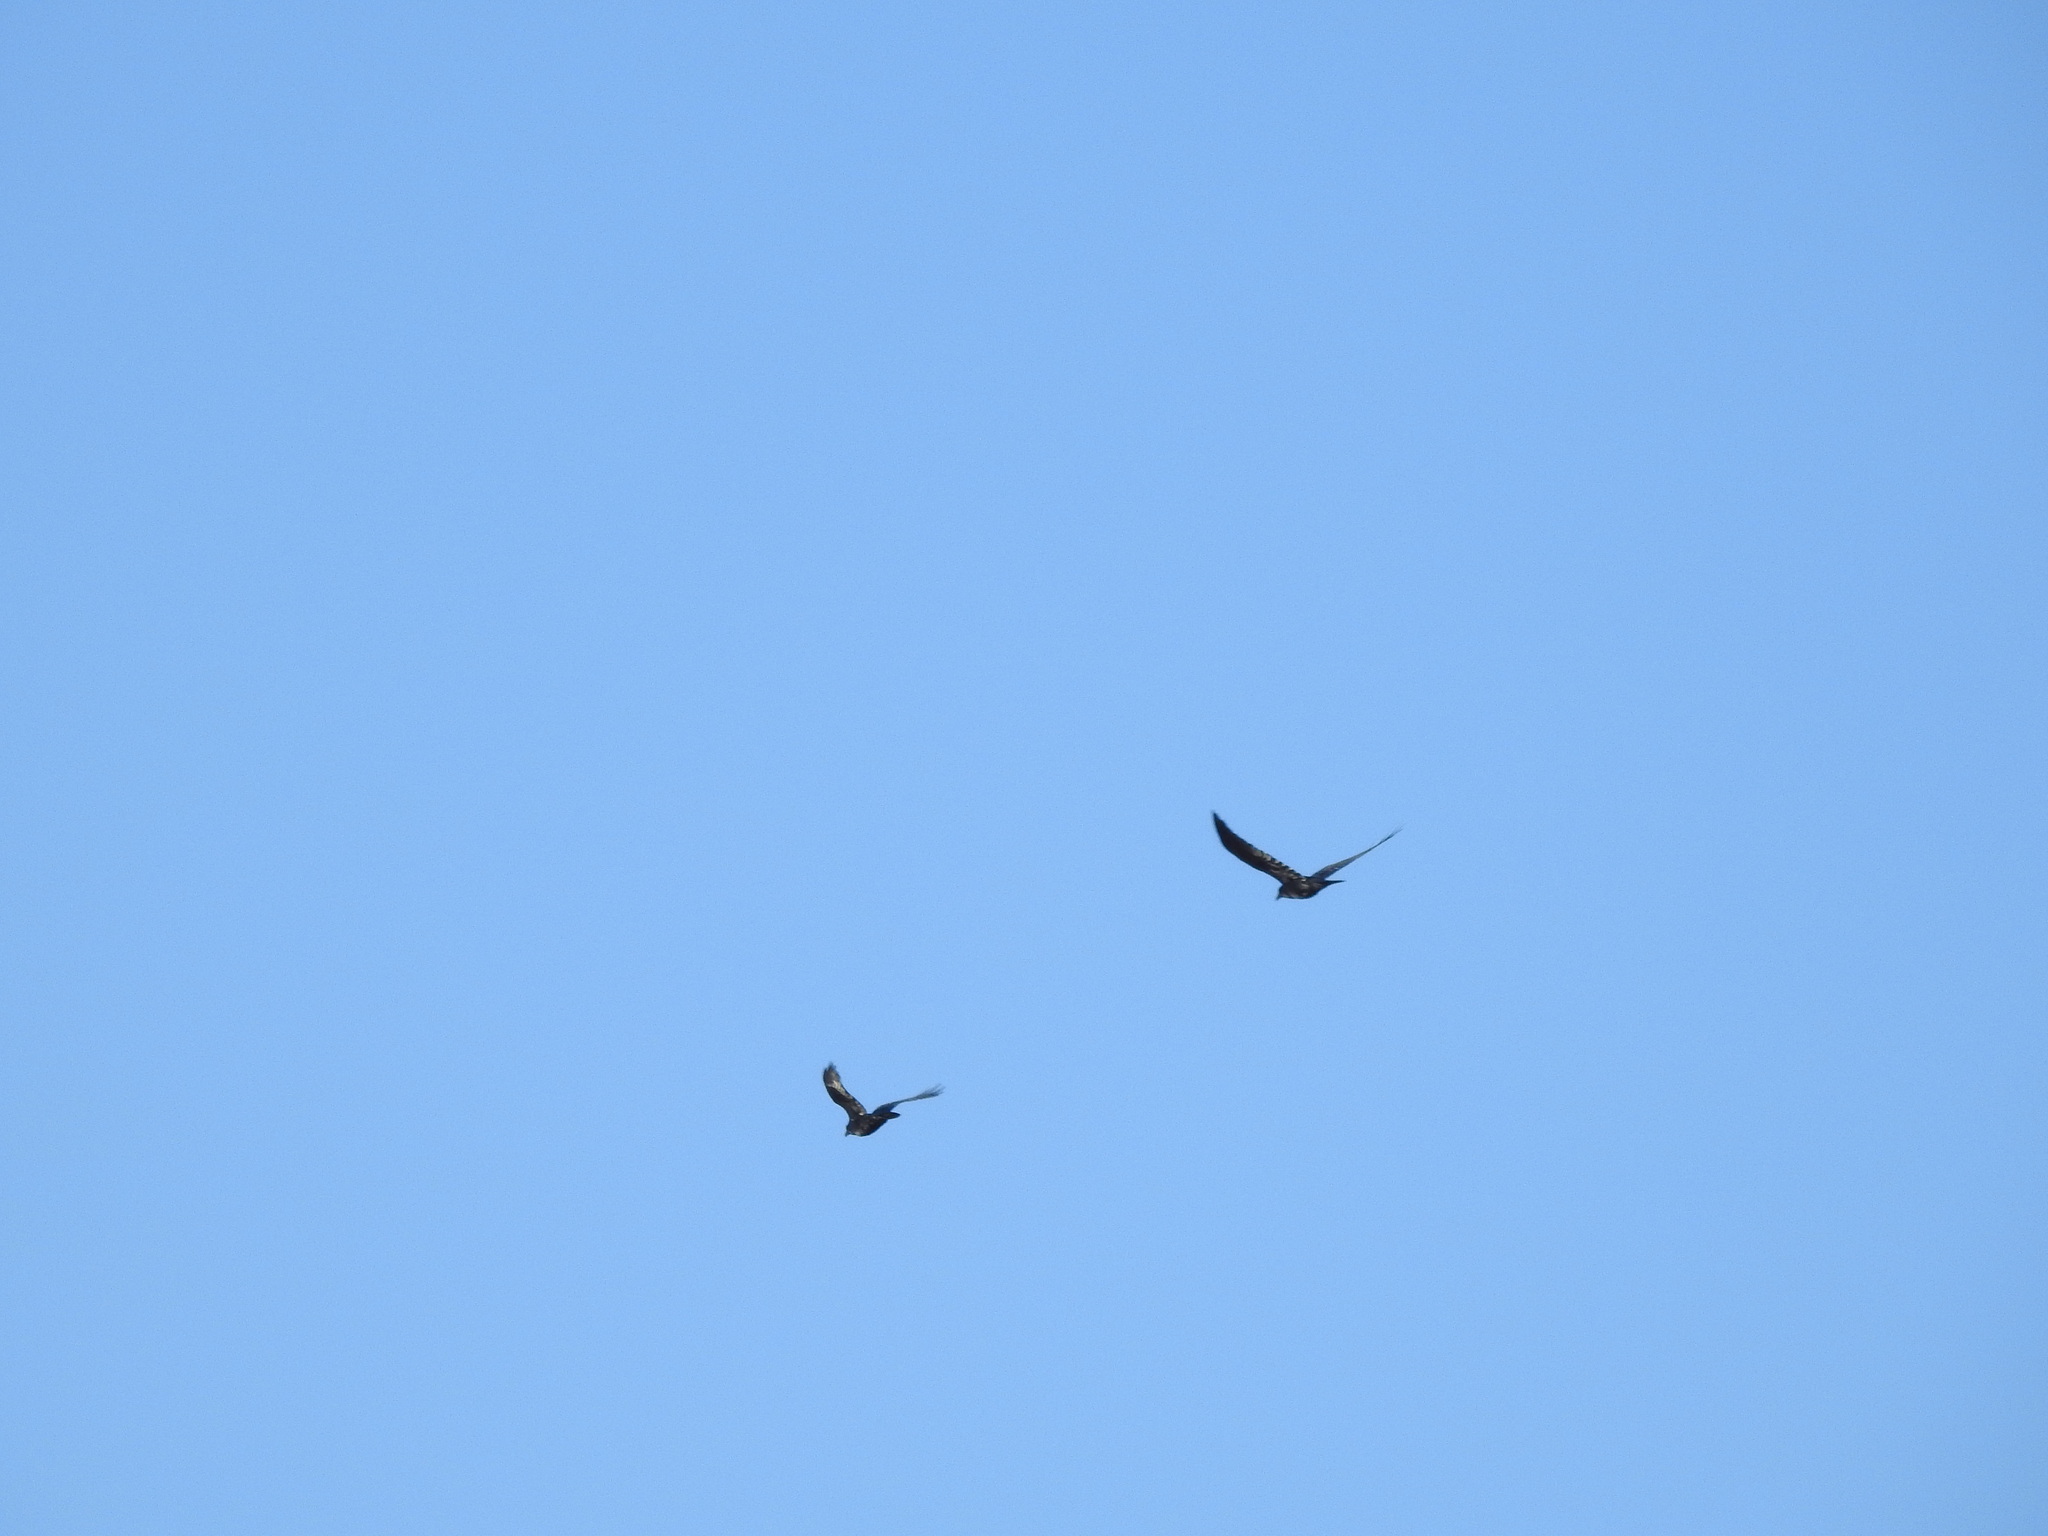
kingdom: Animalia
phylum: Chordata
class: Aves
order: Passeriformes
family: Corvidae
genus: Corvus
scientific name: Corvus corax
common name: Common raven
